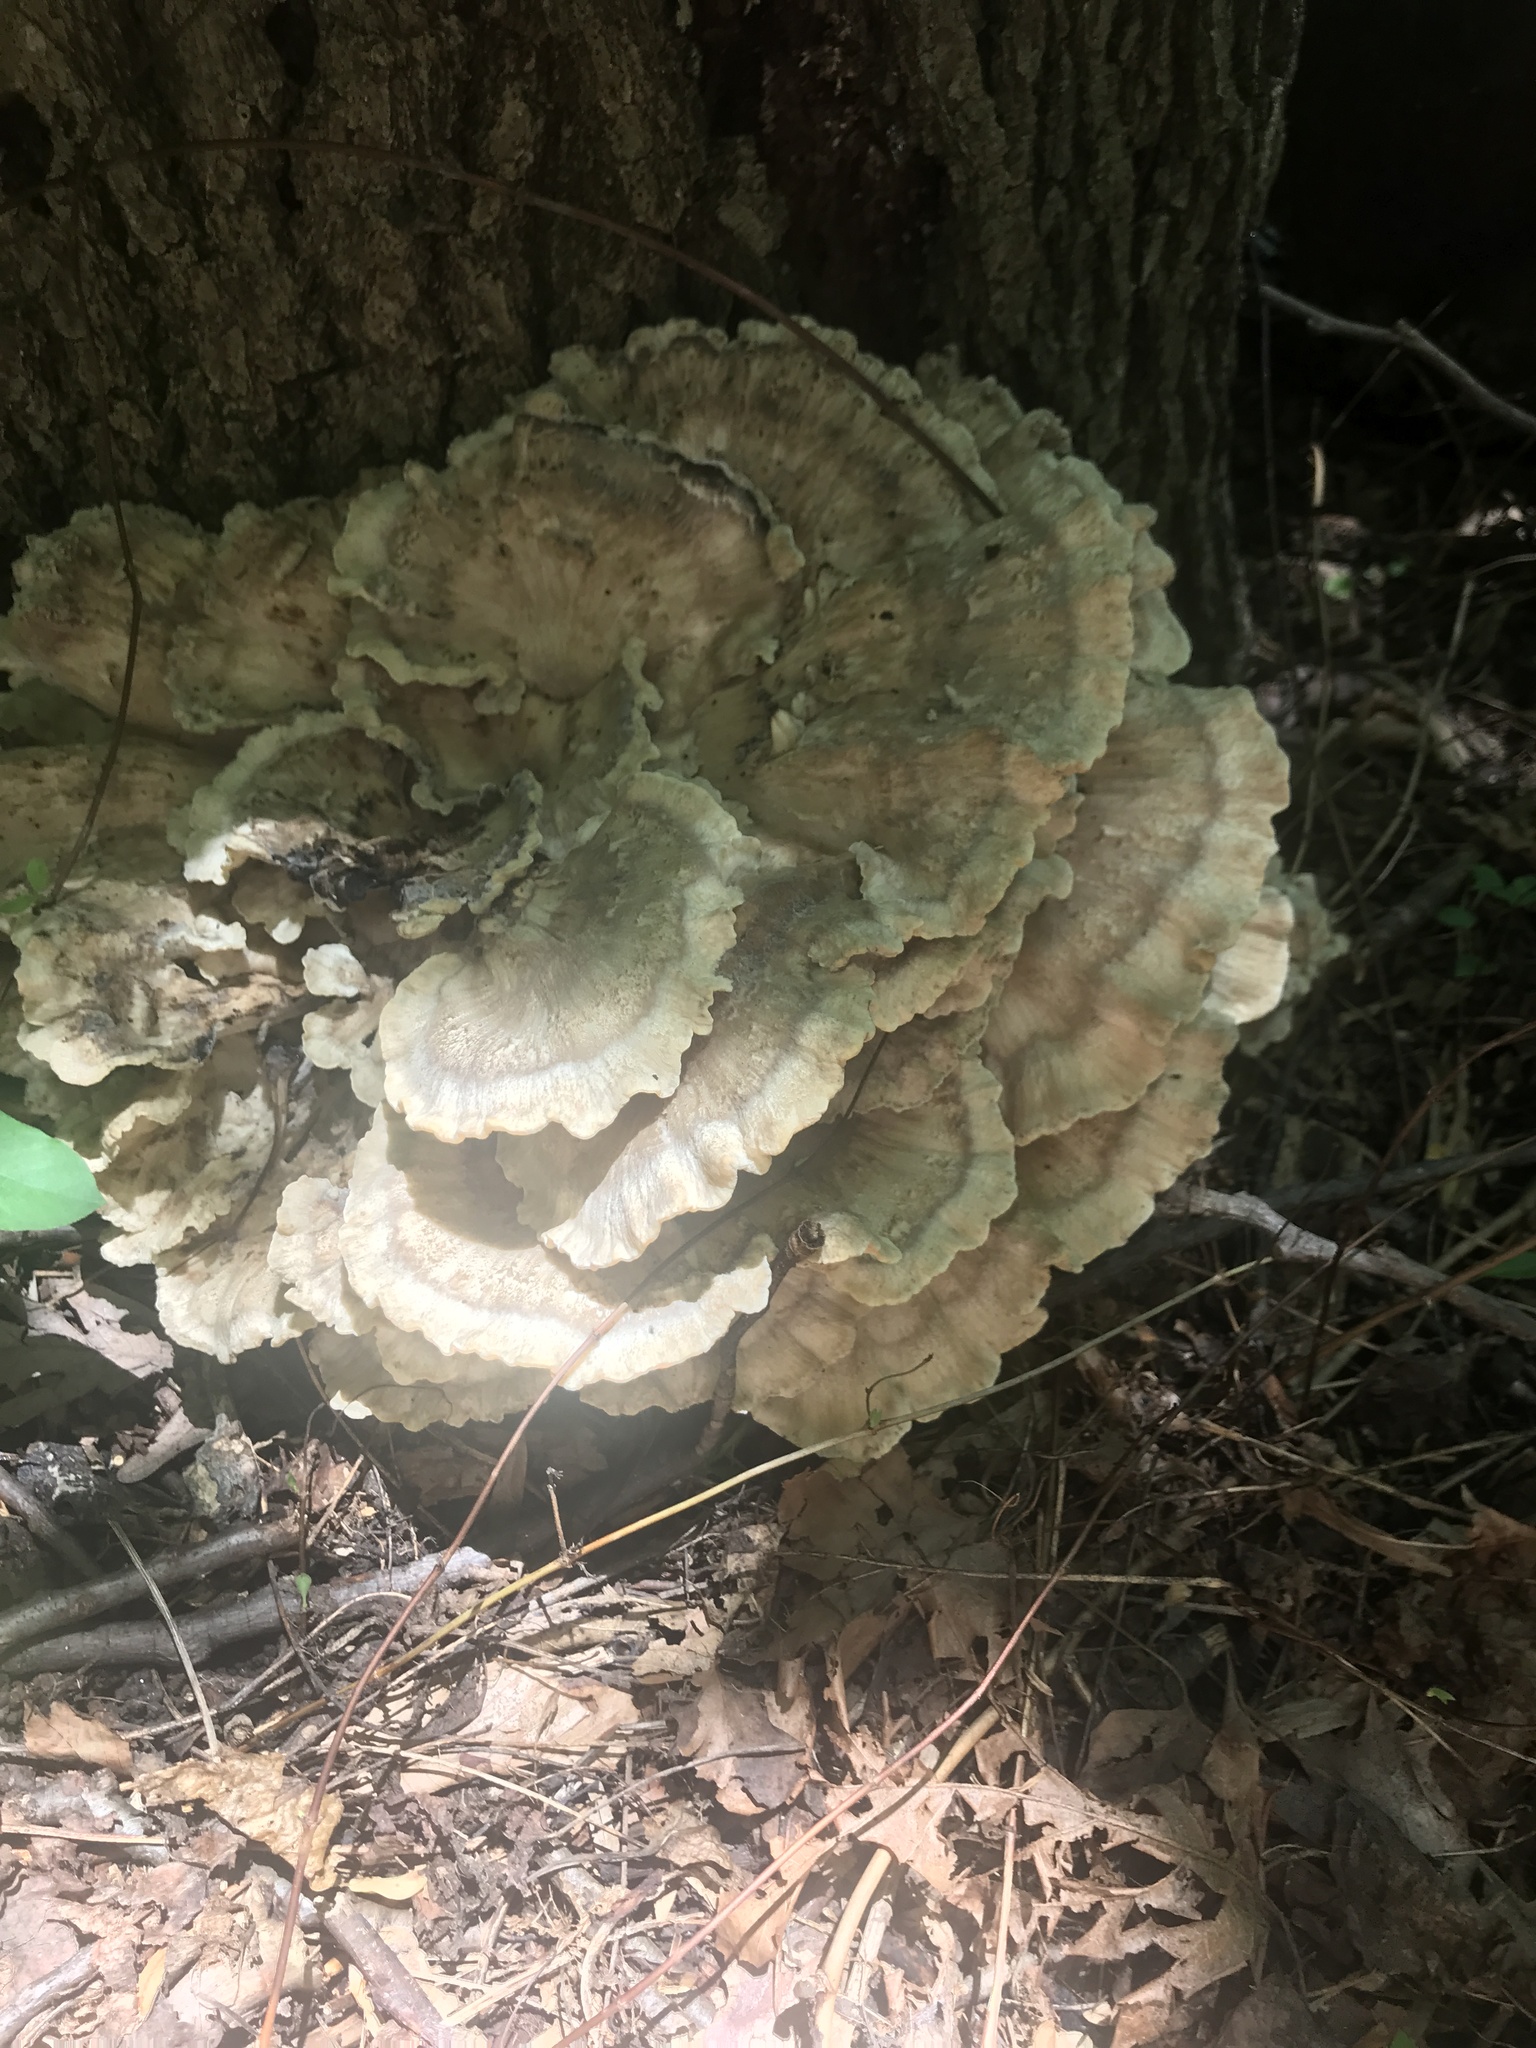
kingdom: Fungi
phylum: Basidiomycota
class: Agaricomycetes
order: Polyporales
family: Meripilaceae
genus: Meripilus
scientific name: Meripilus sumstinei
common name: Black-staining polypore
